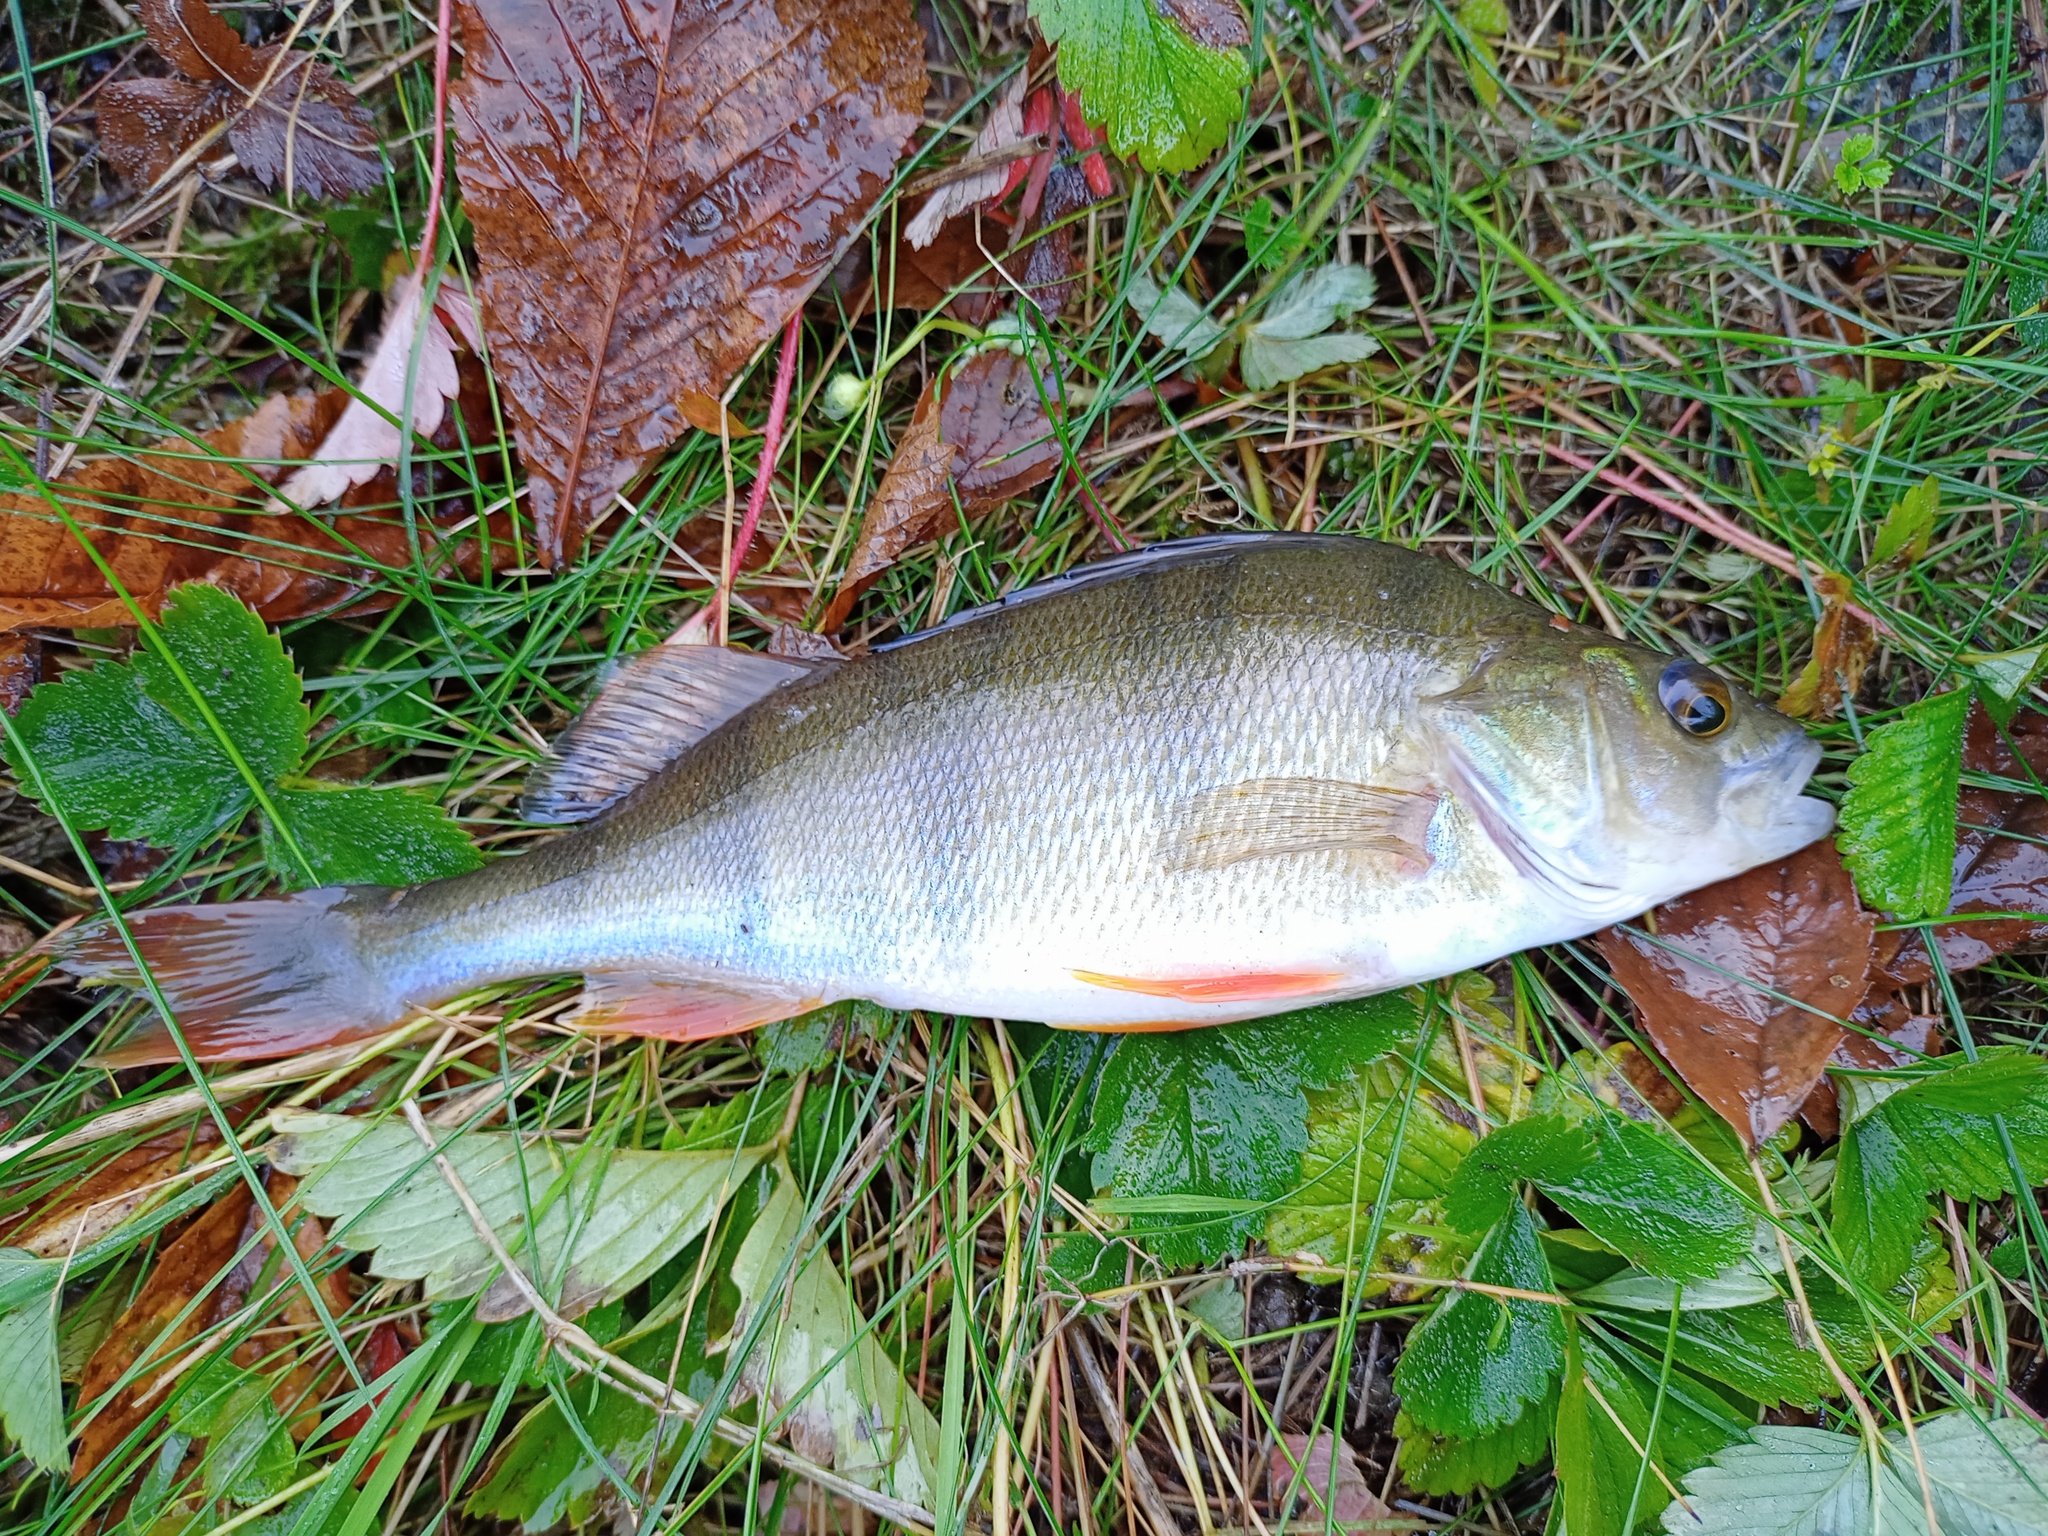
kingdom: Animalia
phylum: Chordata
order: Perciformes
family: Percidae
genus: Perca
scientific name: Perca fluviatilis
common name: Perch
